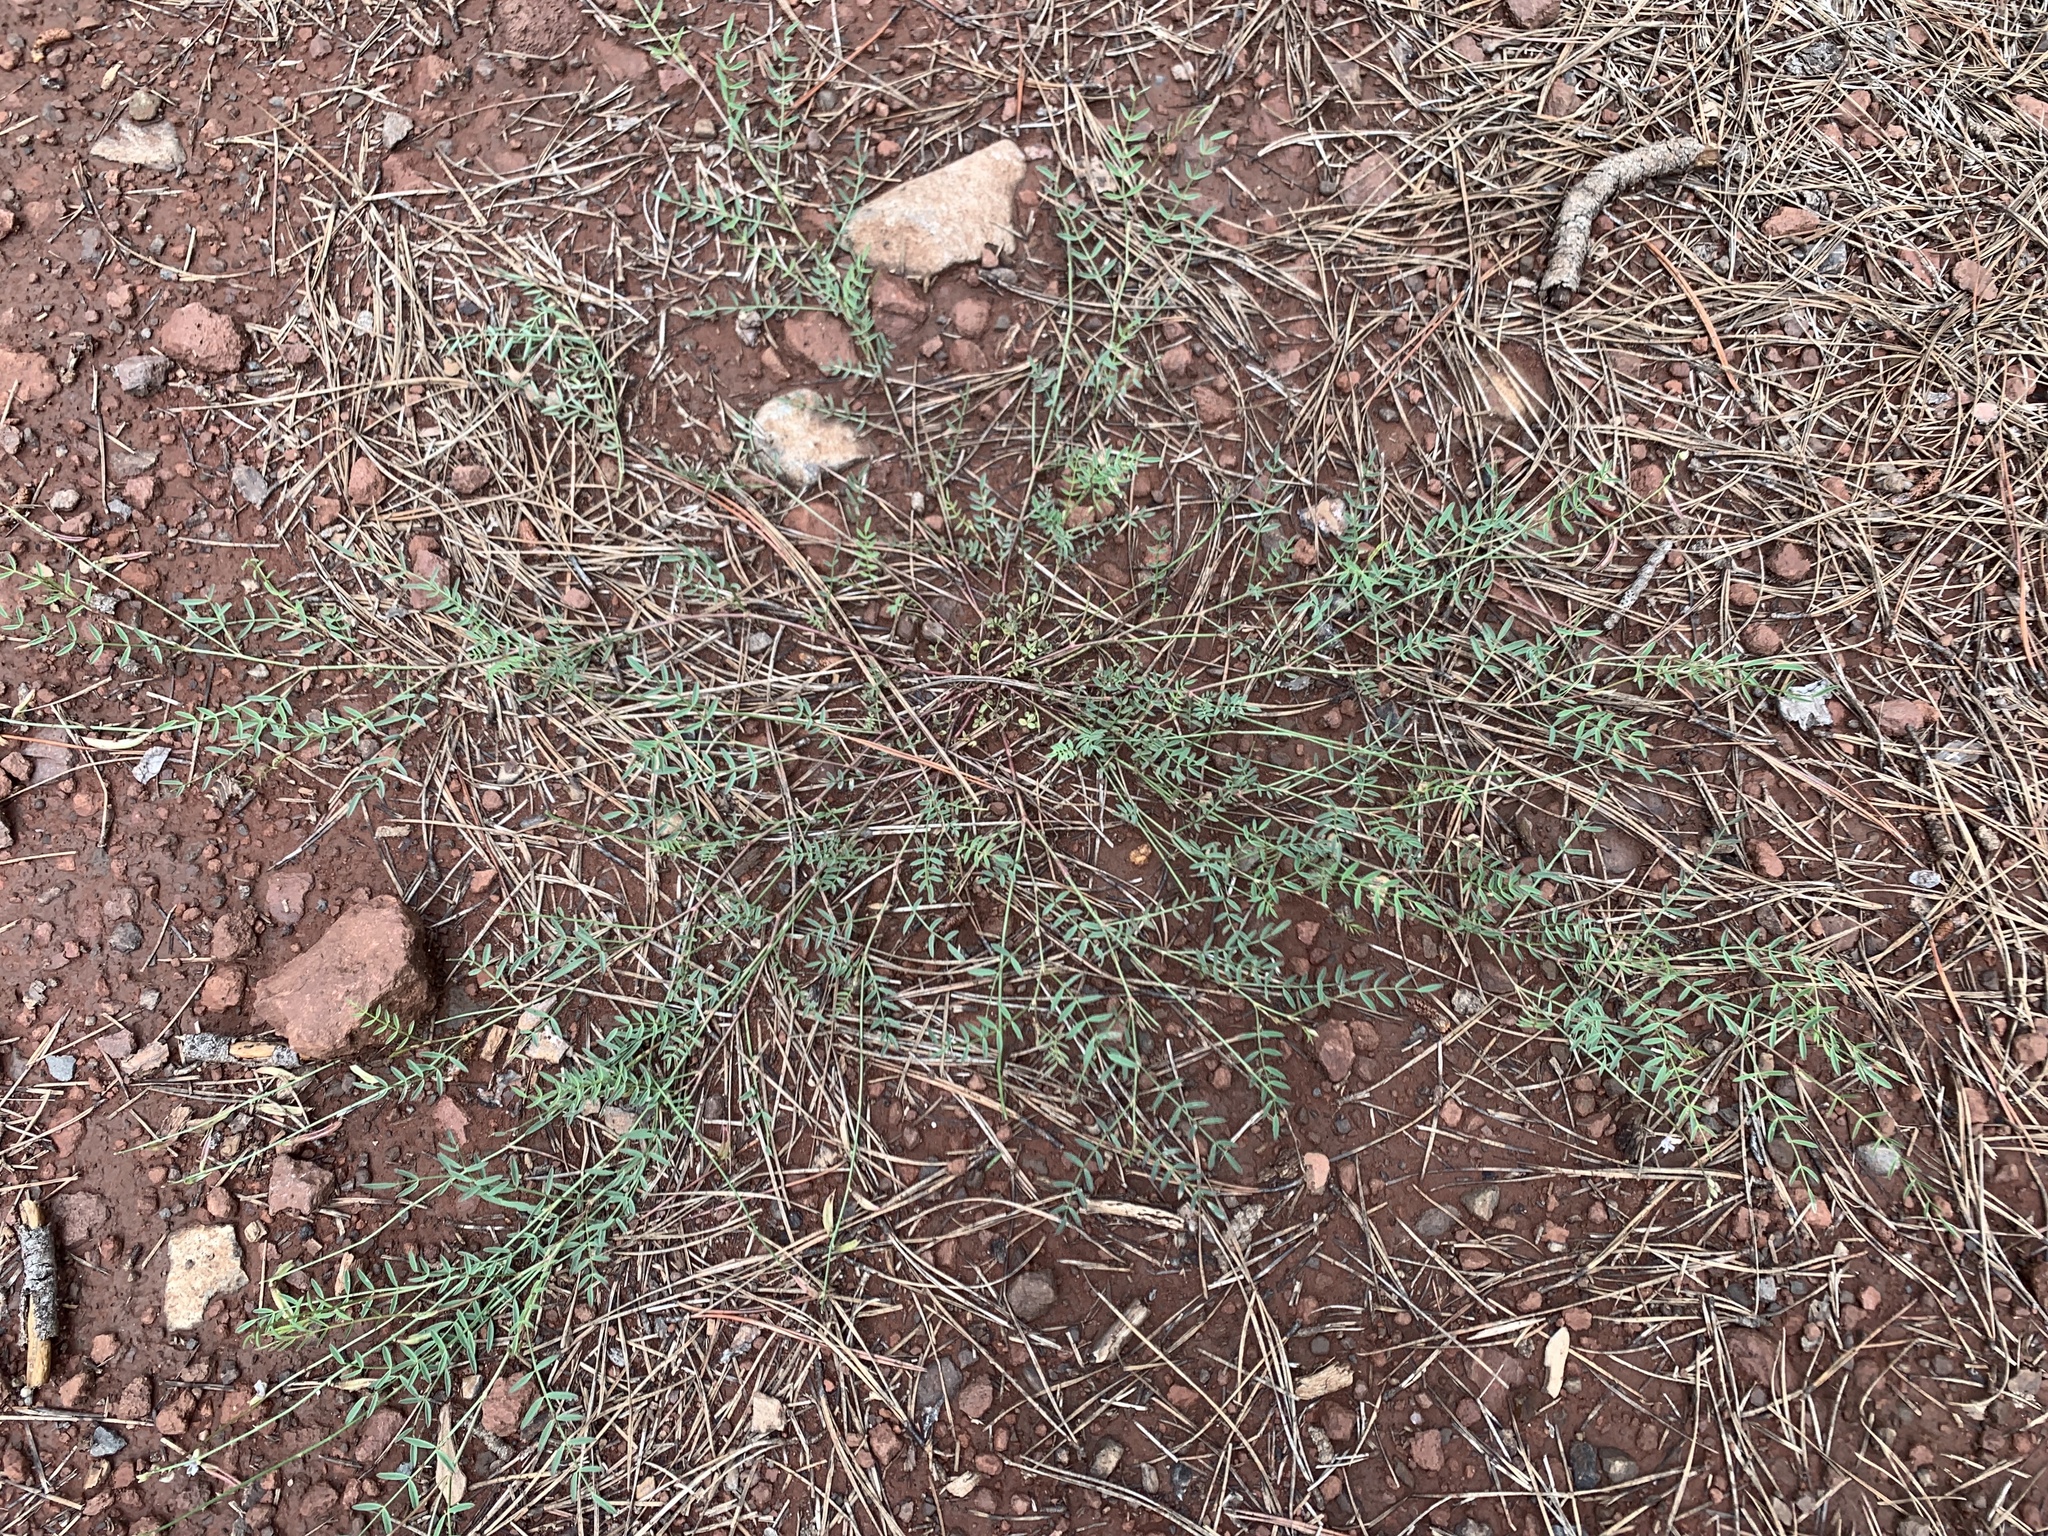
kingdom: Plantae
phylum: Tracheophyta
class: Magnoliopsida
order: Fabales
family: Fabaceae
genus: Astragalus
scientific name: Astragalus recurvus
